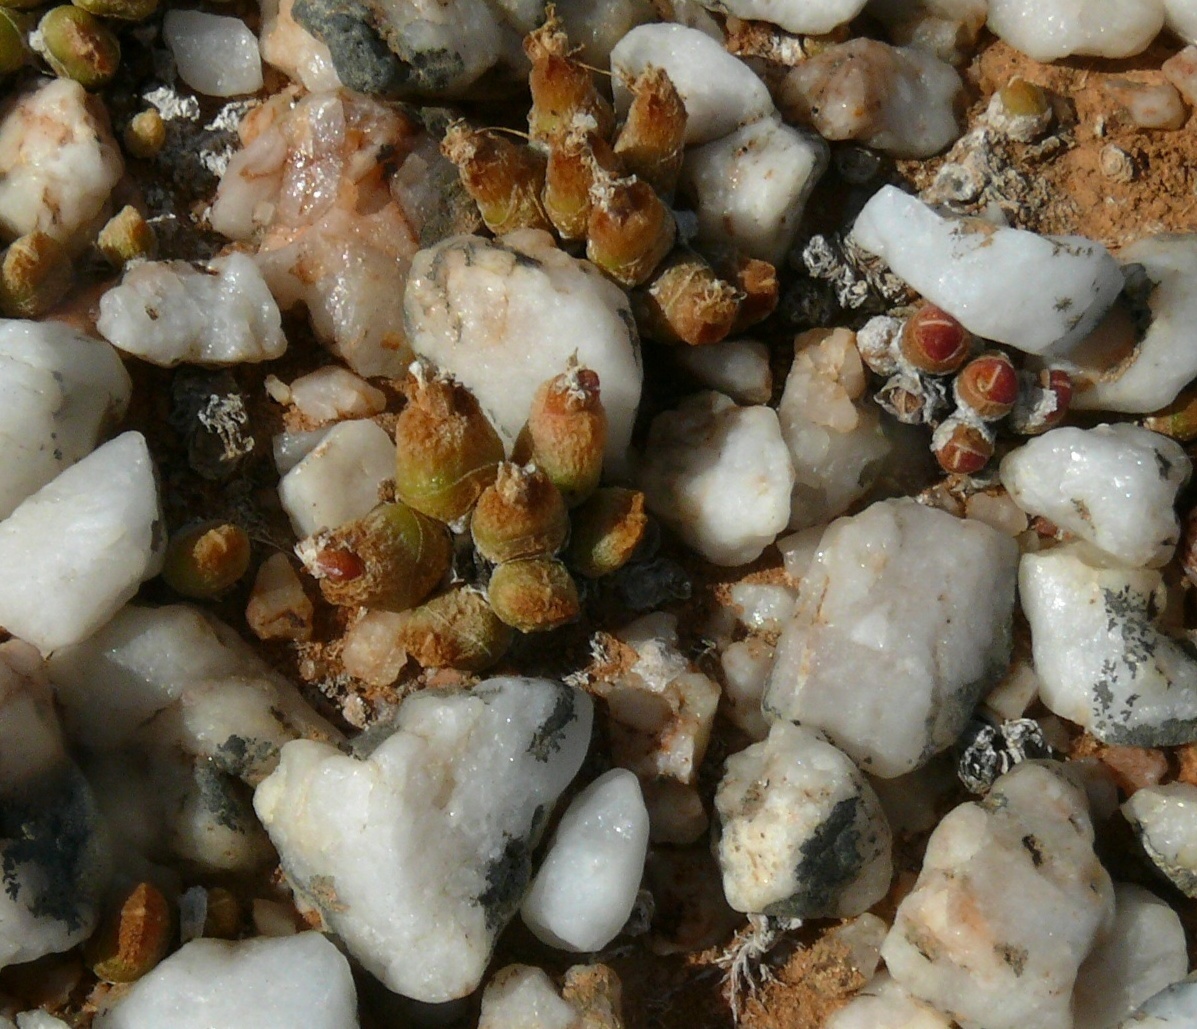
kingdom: Plantae
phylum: Tracheophyta
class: Magnoliopsida
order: Caryophyllales
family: Aizoaceae
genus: Oophytum
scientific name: Oophytum nanum
